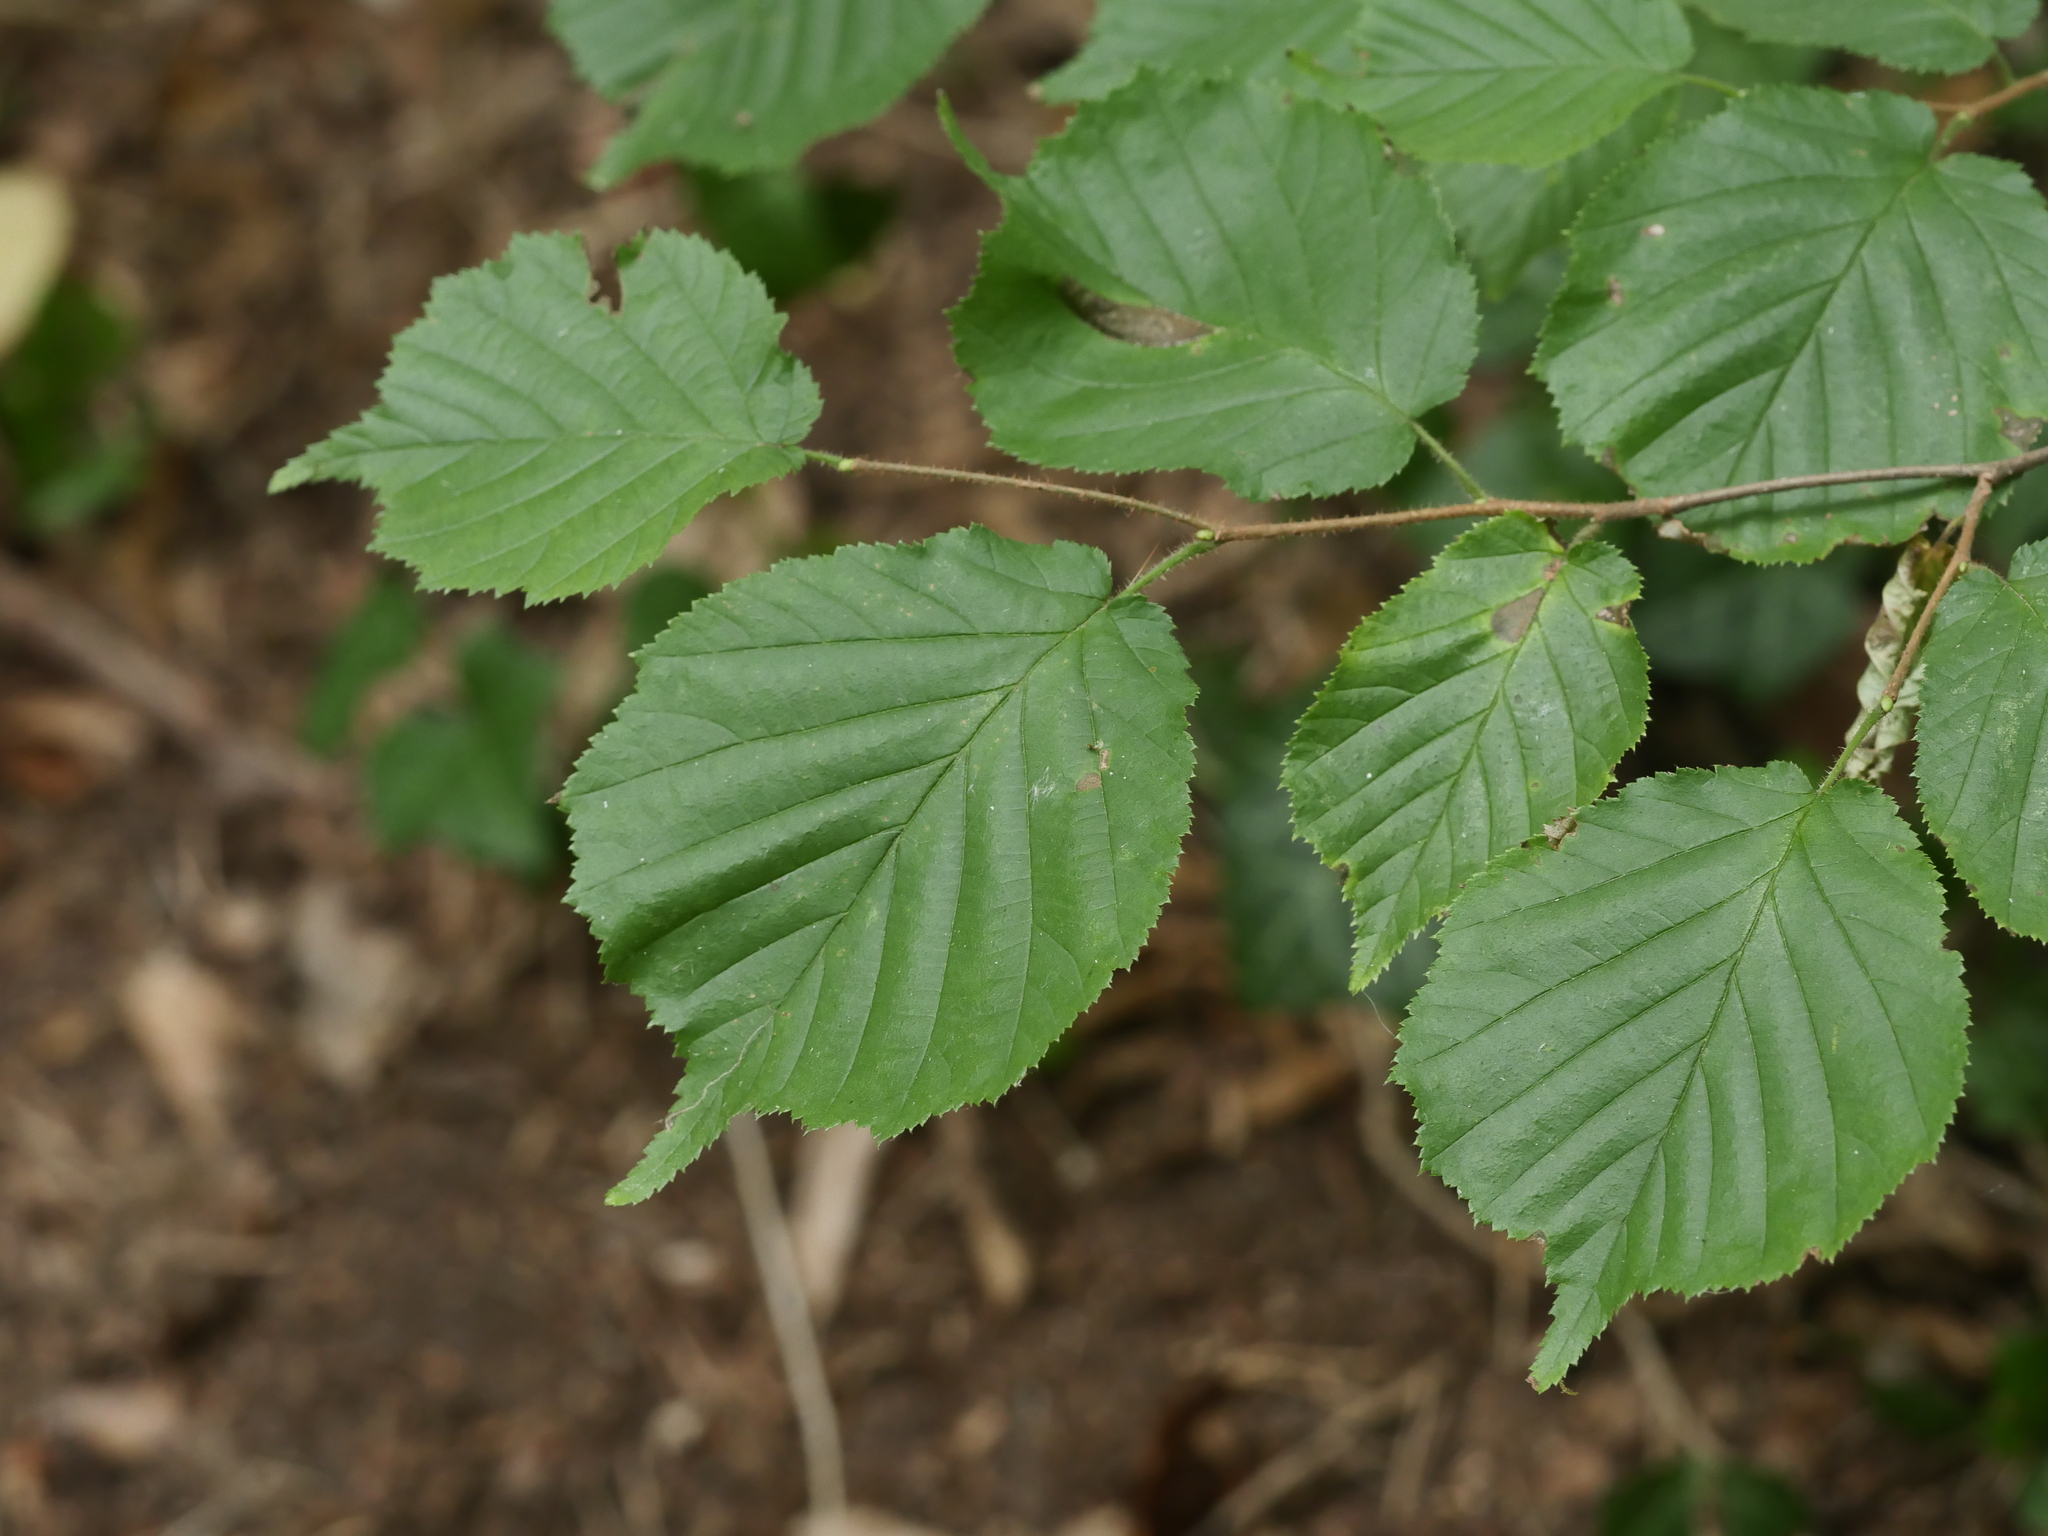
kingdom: Plantae
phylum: Tracheophyta
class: Magnoliopsida
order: Fagales
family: Betulaceae
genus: Corylus
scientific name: Corylus avellana
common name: European hazel
